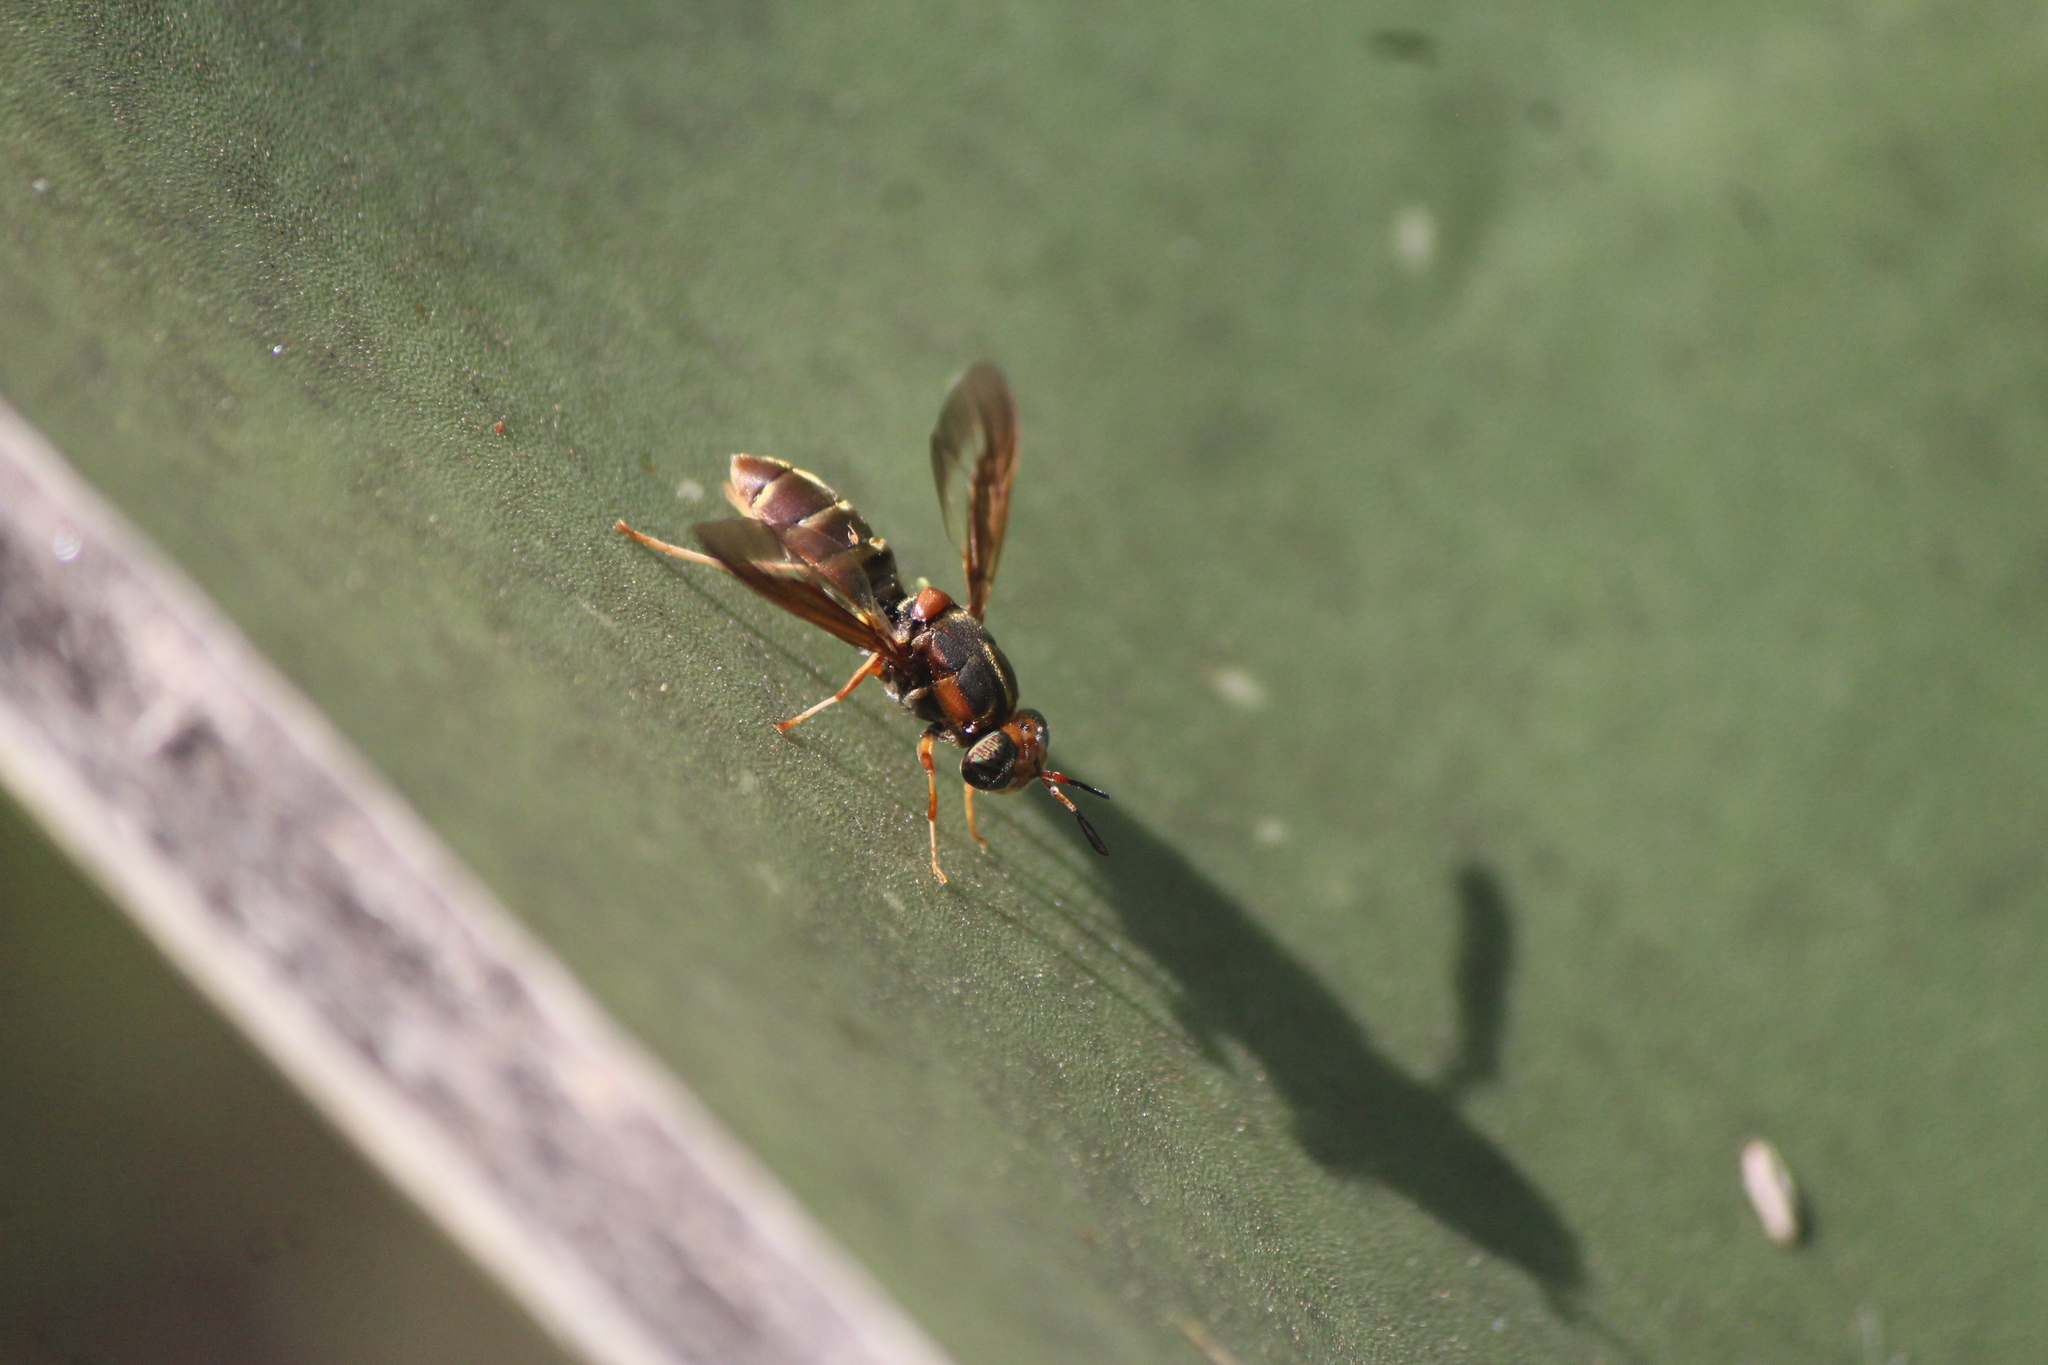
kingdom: Animalia
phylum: Arthropoda
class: Insecta
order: Diptera
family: Stratiomyidae
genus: Hermetia
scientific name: Hermetia comstocki
